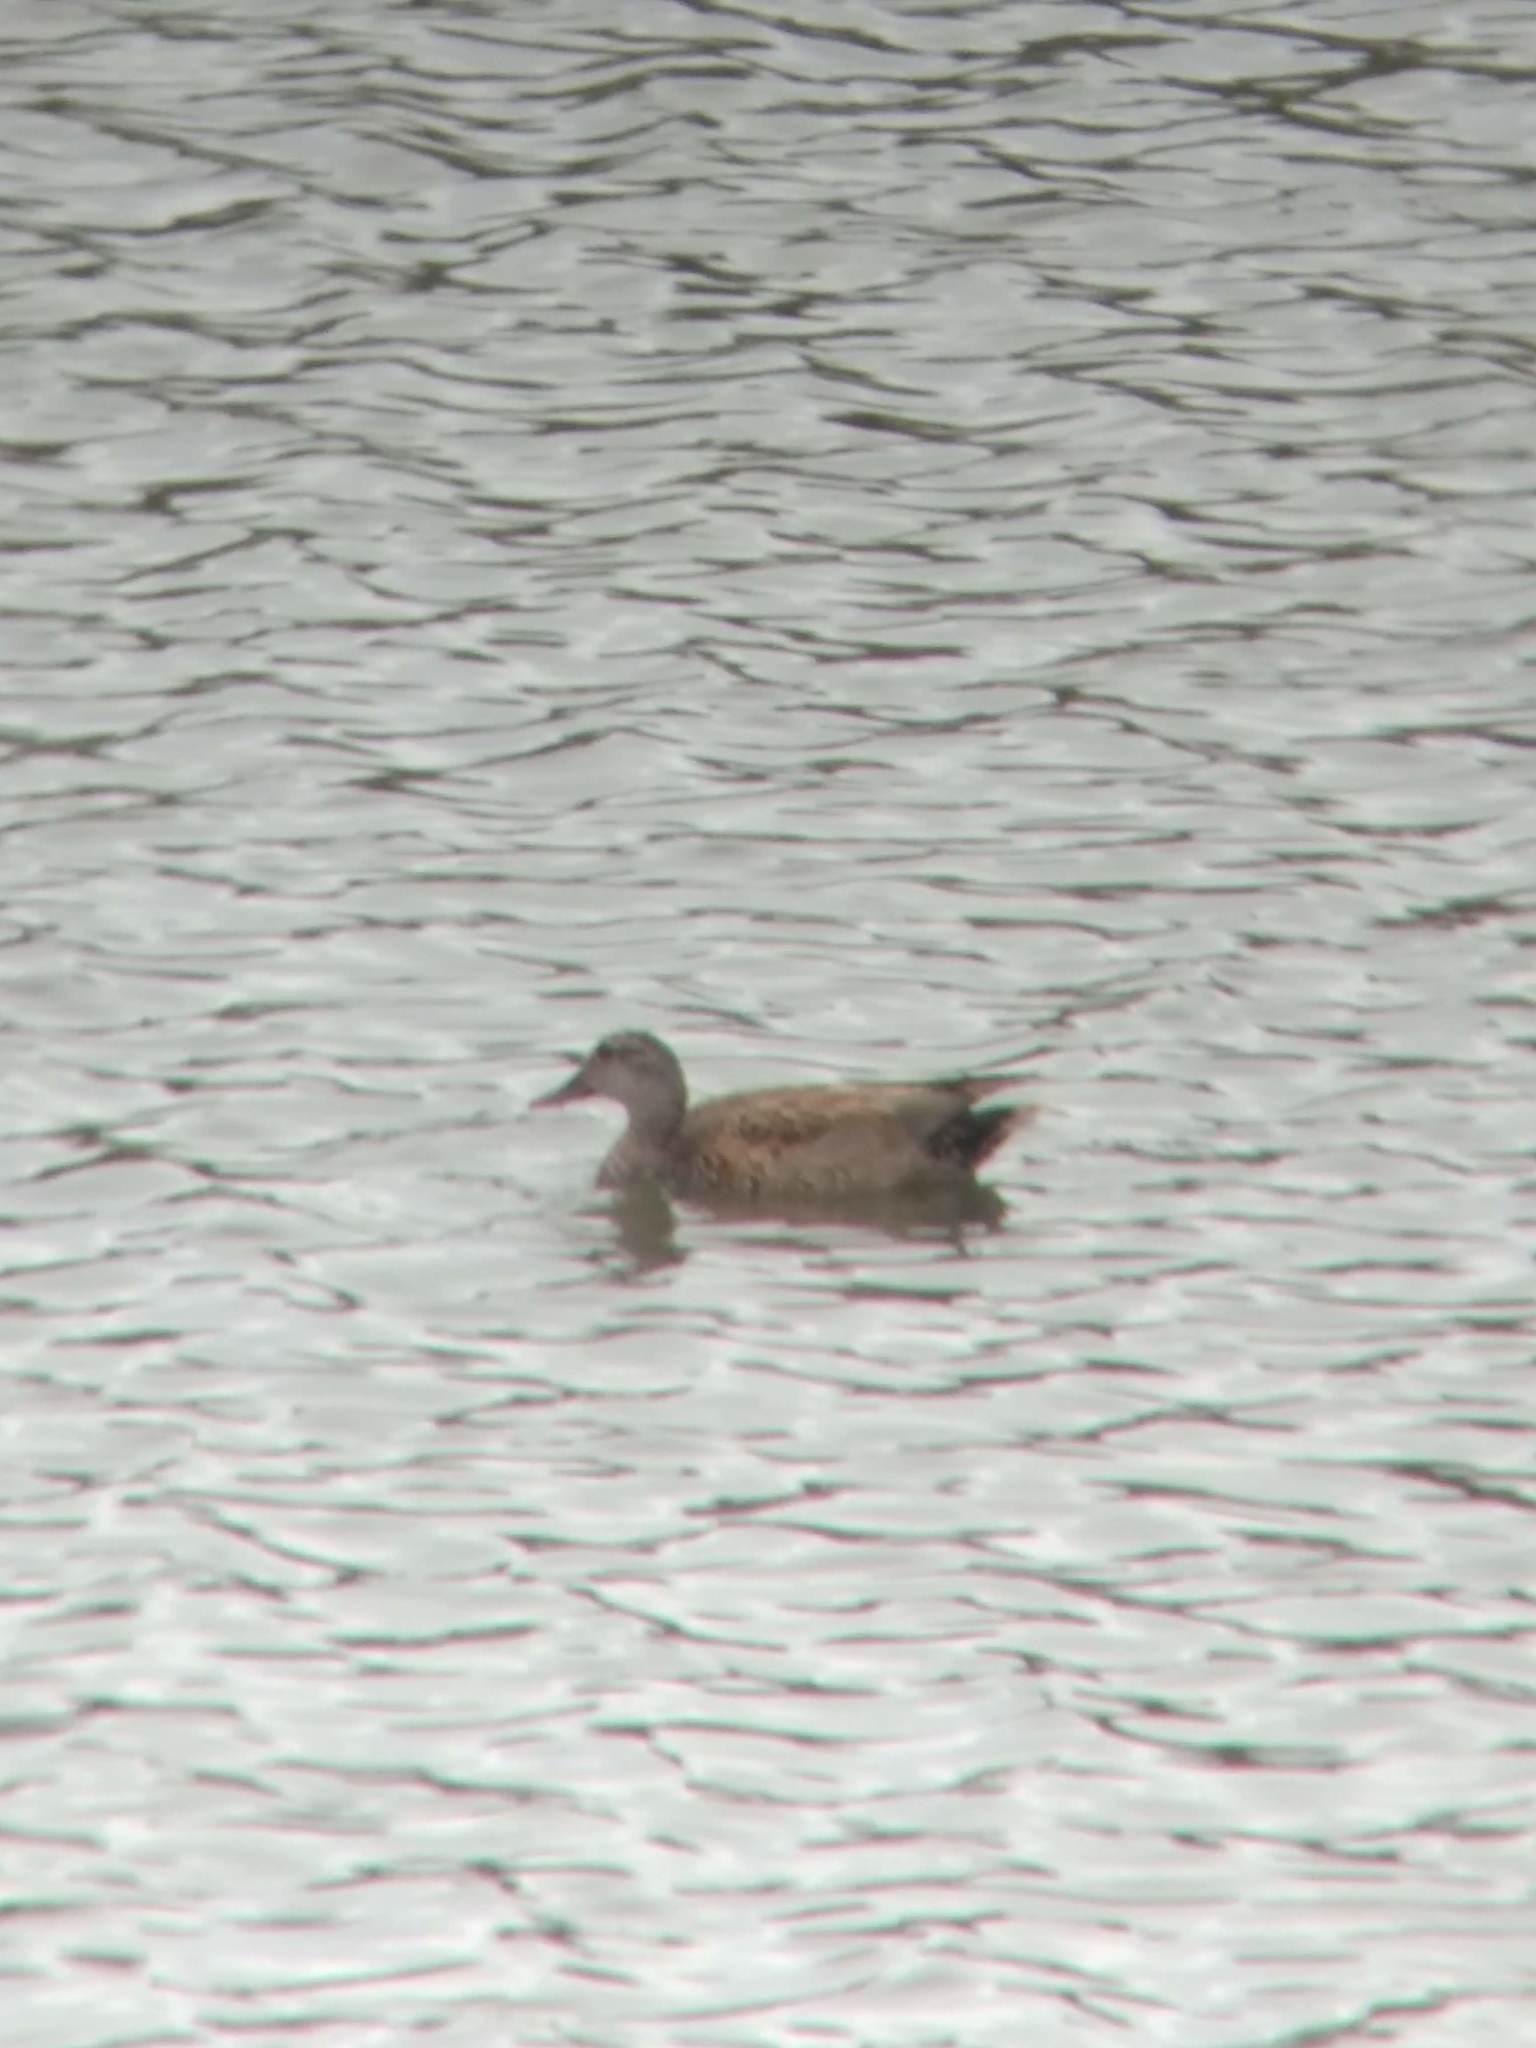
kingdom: Animalia
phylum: Chordata
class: Aves
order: Anseriformes
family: Anatidae
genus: Mareca
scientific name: Mareca strepera
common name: Gadwall
